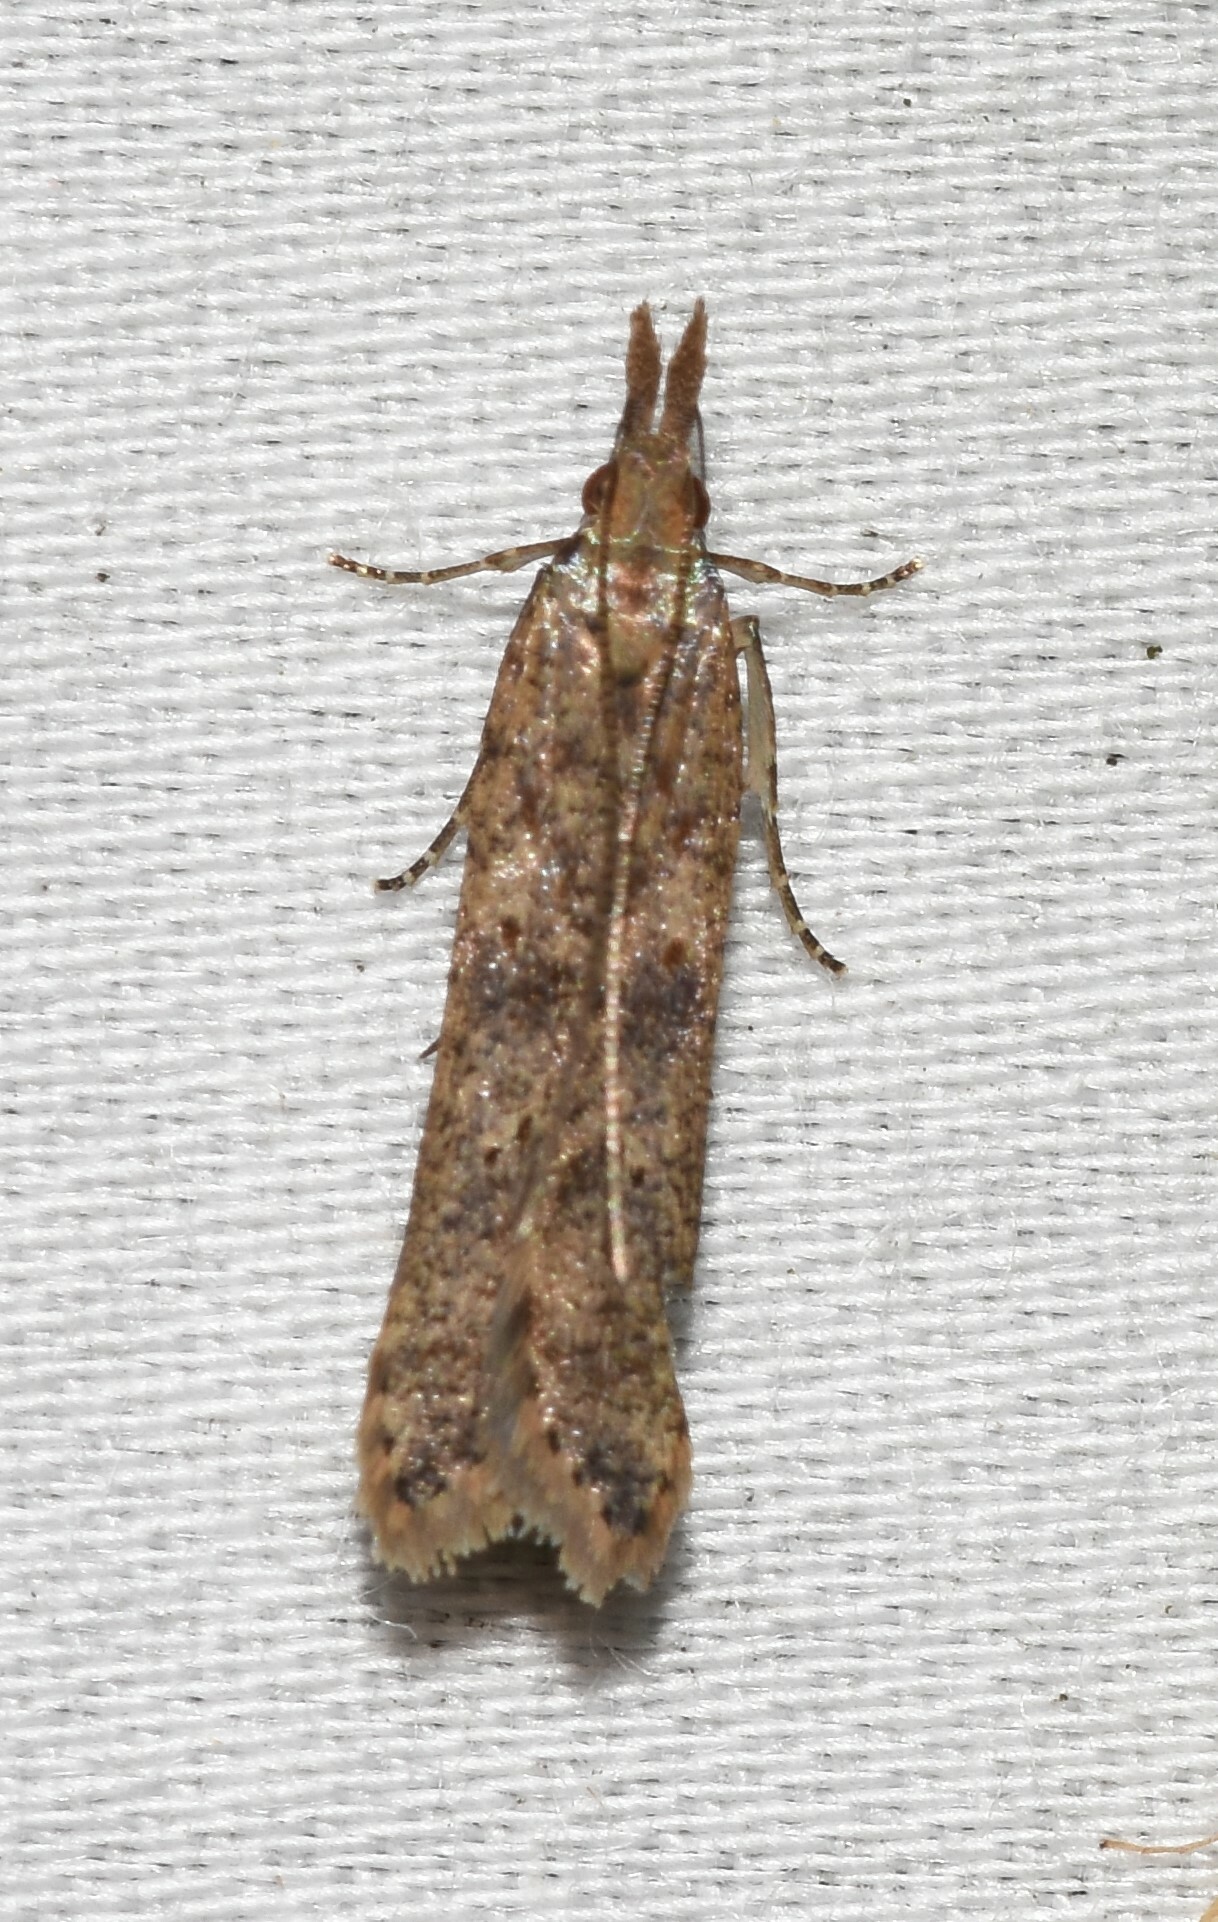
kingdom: Animalia
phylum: Arthropoda
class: Insecta
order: Lepidoptera
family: Gelechiidae
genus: Dichomeris
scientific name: Dichomeris ligulella
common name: Moth
